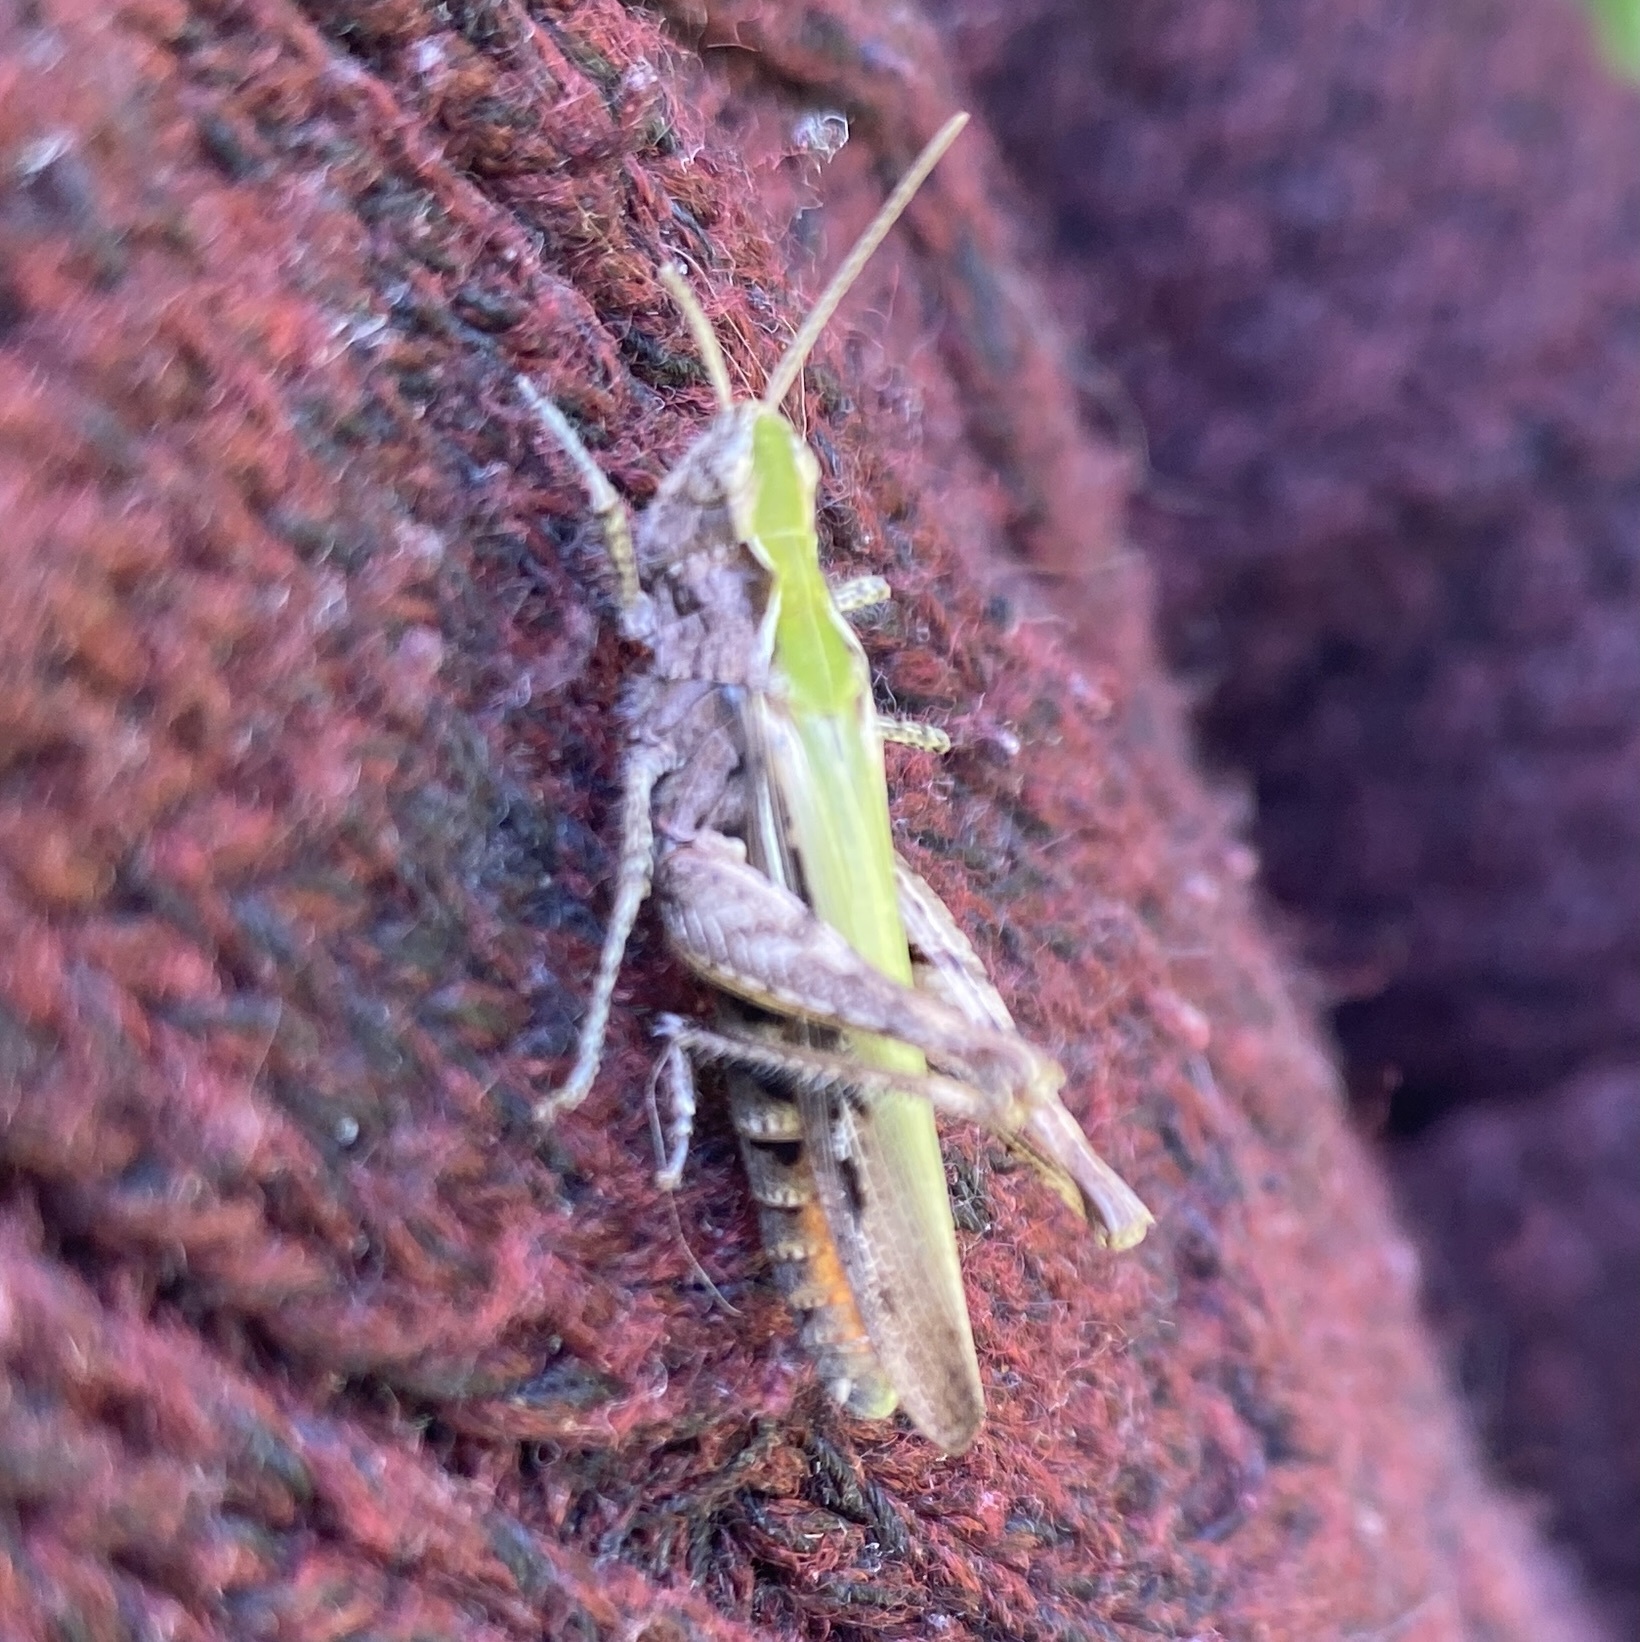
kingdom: Animalia
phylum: Arthropoda
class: Insecta
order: Orthoptera
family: Acrididae
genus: Chorthippus
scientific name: Chorthippus brunneus
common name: Field grasshopper
